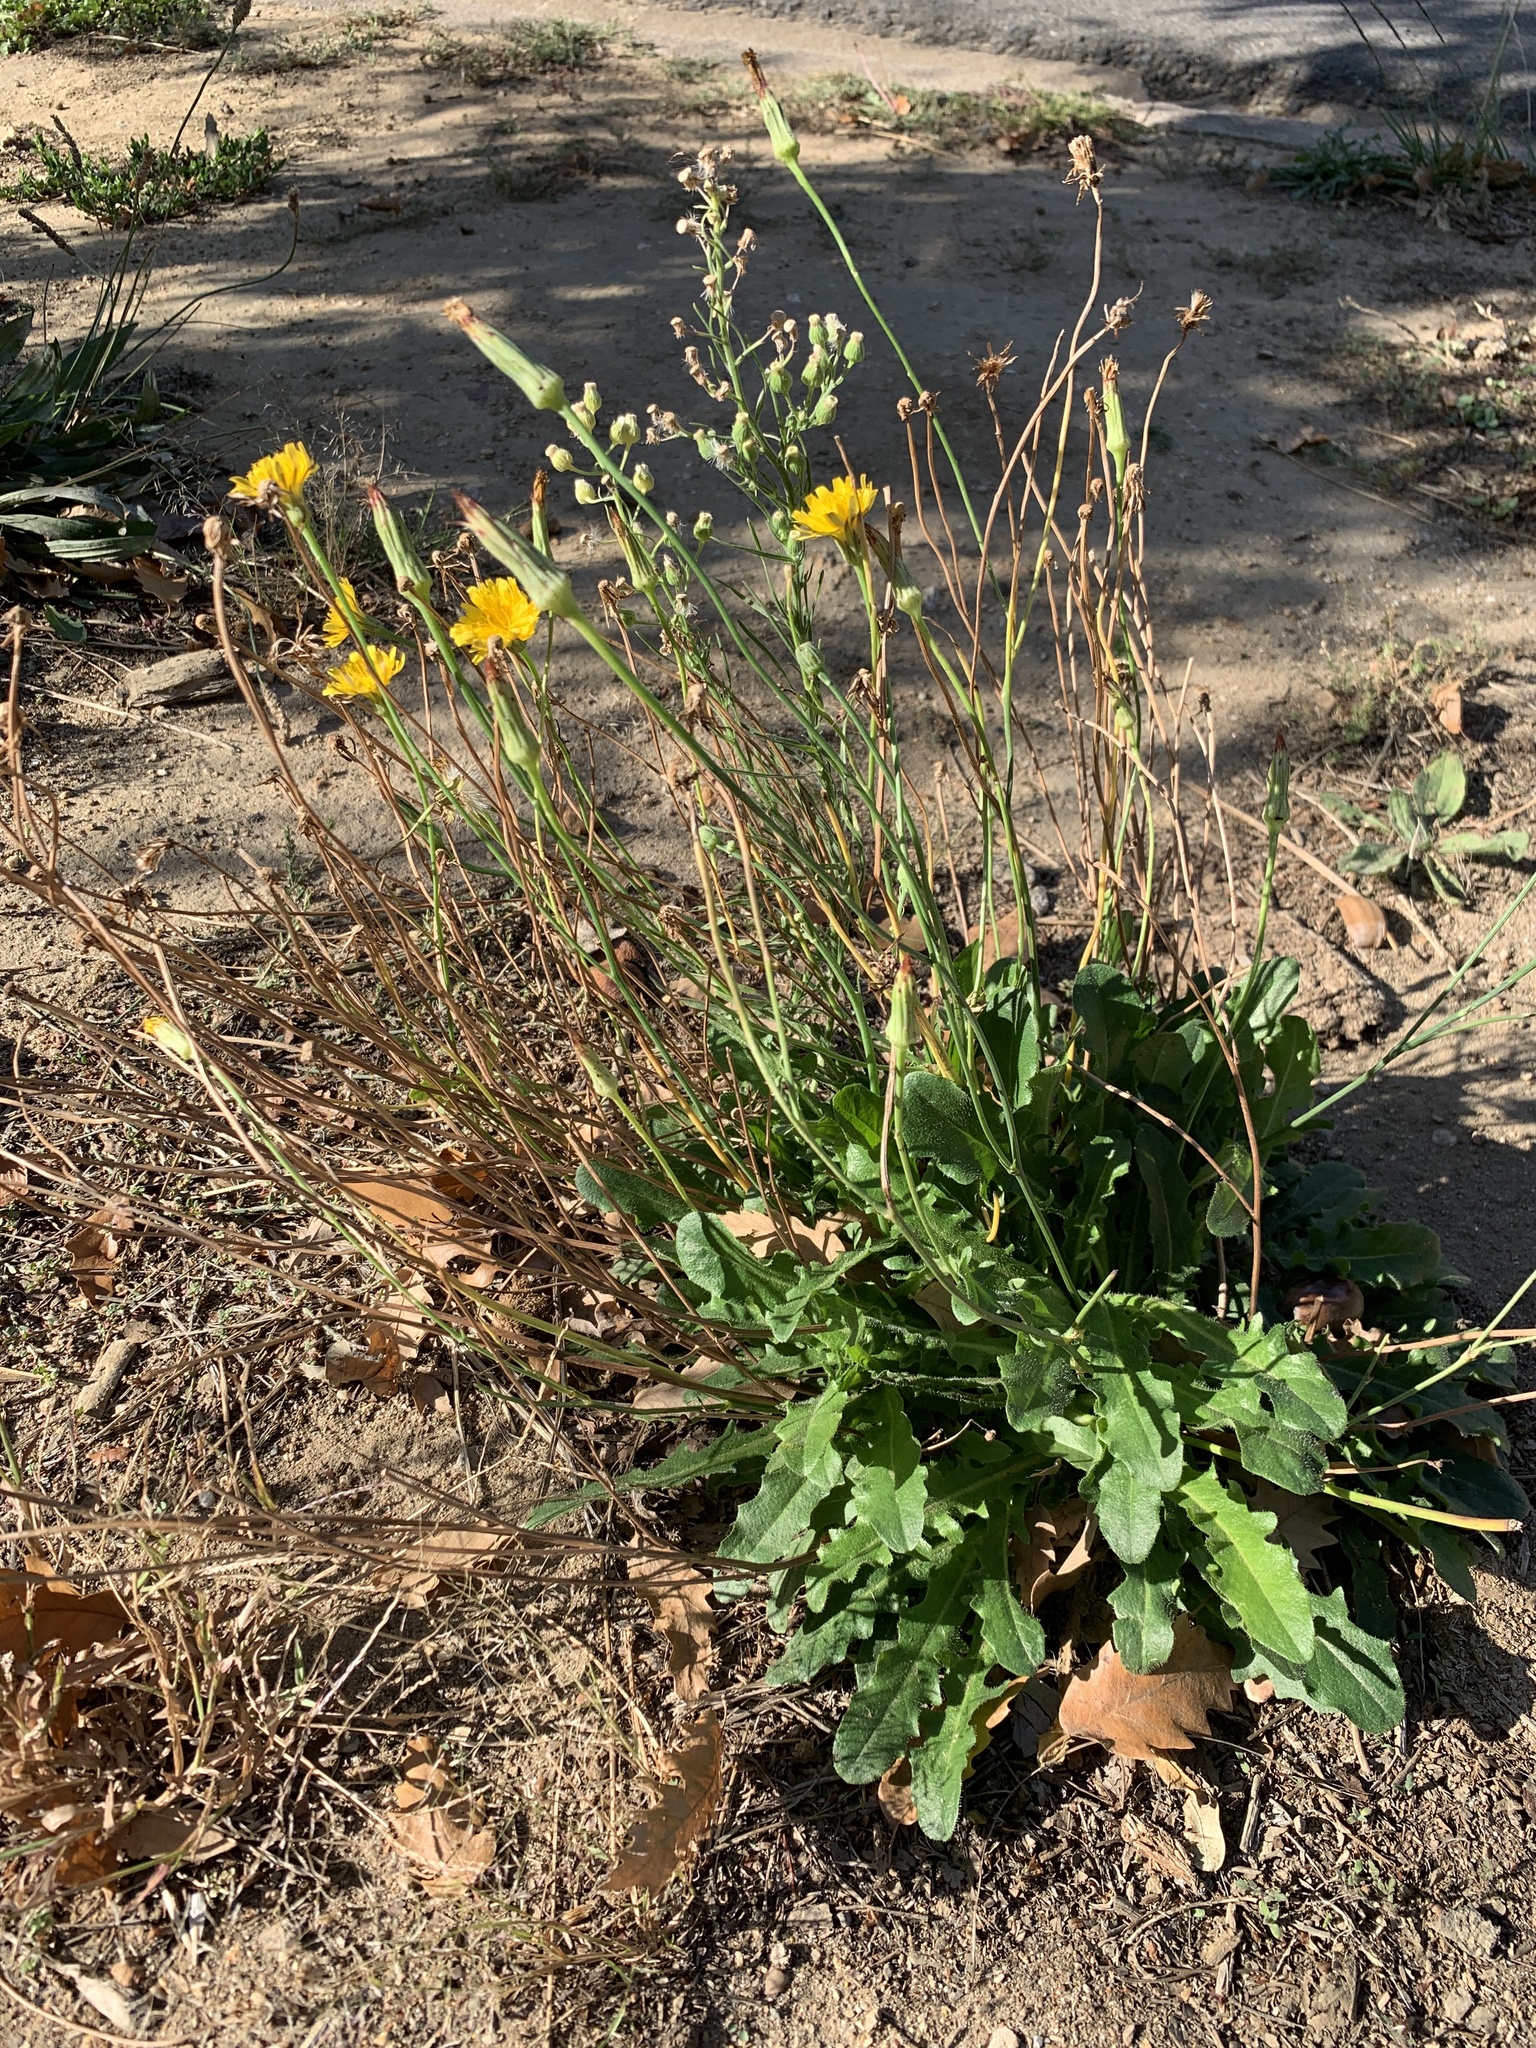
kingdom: Plantae
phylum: Tracheophyta
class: Magnoliopsida
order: Asterales
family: Asteraceae
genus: Hypochaeris
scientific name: Hypochaeris radicata
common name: Flatweed
